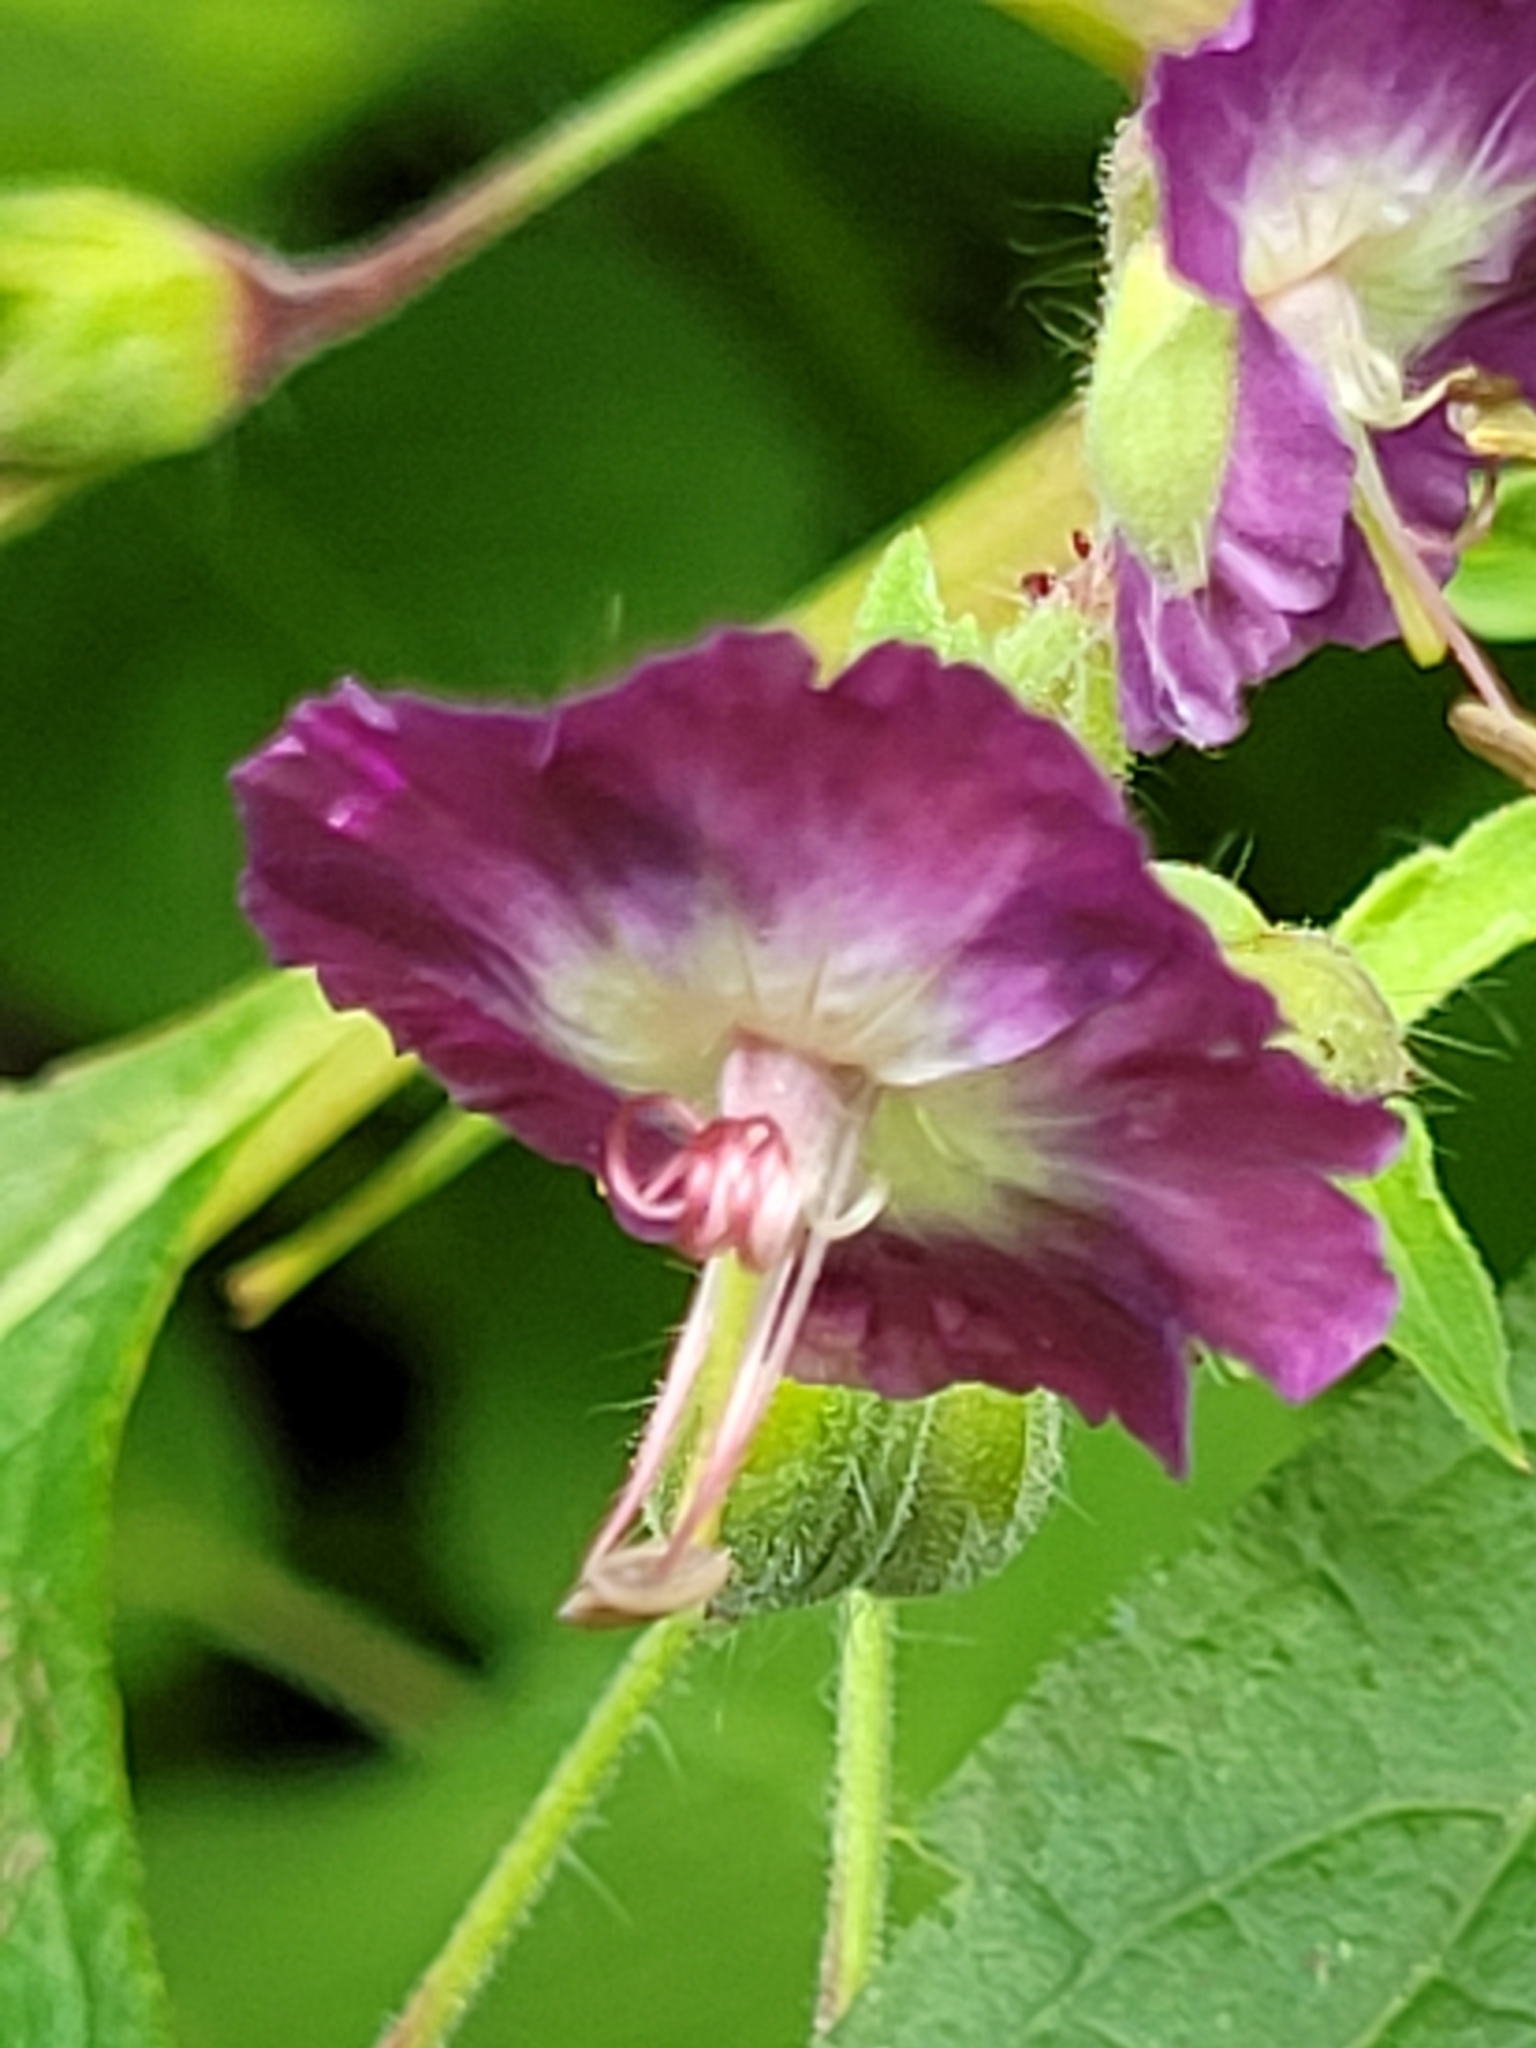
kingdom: Plantae
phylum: Tracheophyta
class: Magnoliopsida
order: Geraniales
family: Geraniaceae
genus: Geranium
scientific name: Geranium phaeum
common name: Dusky crane's-bill
